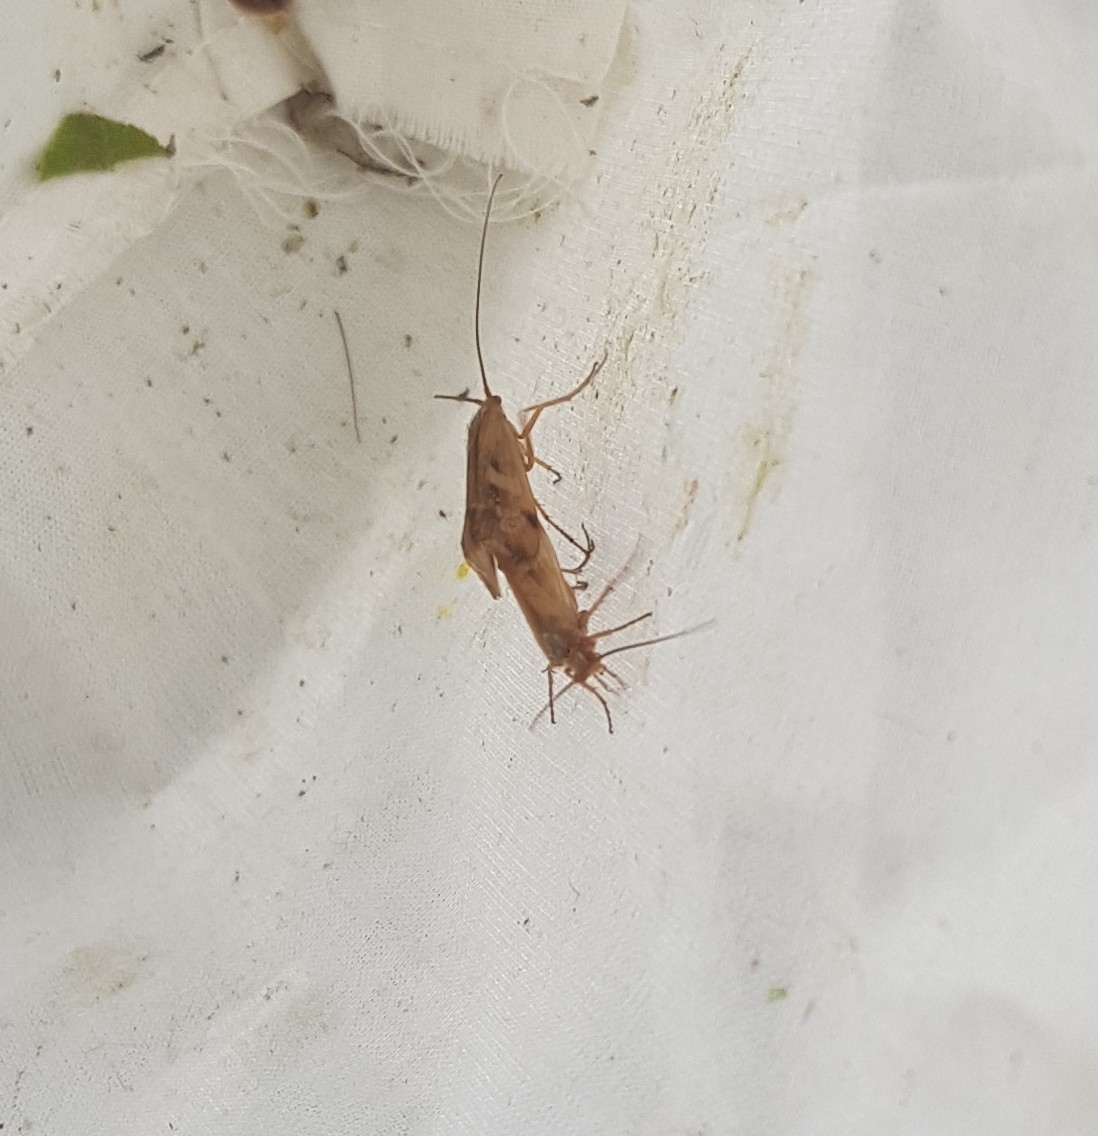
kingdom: Animalia
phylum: Arthropoda
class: Insecta
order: Trichoptera
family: Limnephilidae
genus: Limnephilus
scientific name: Limnephilus lunatus
